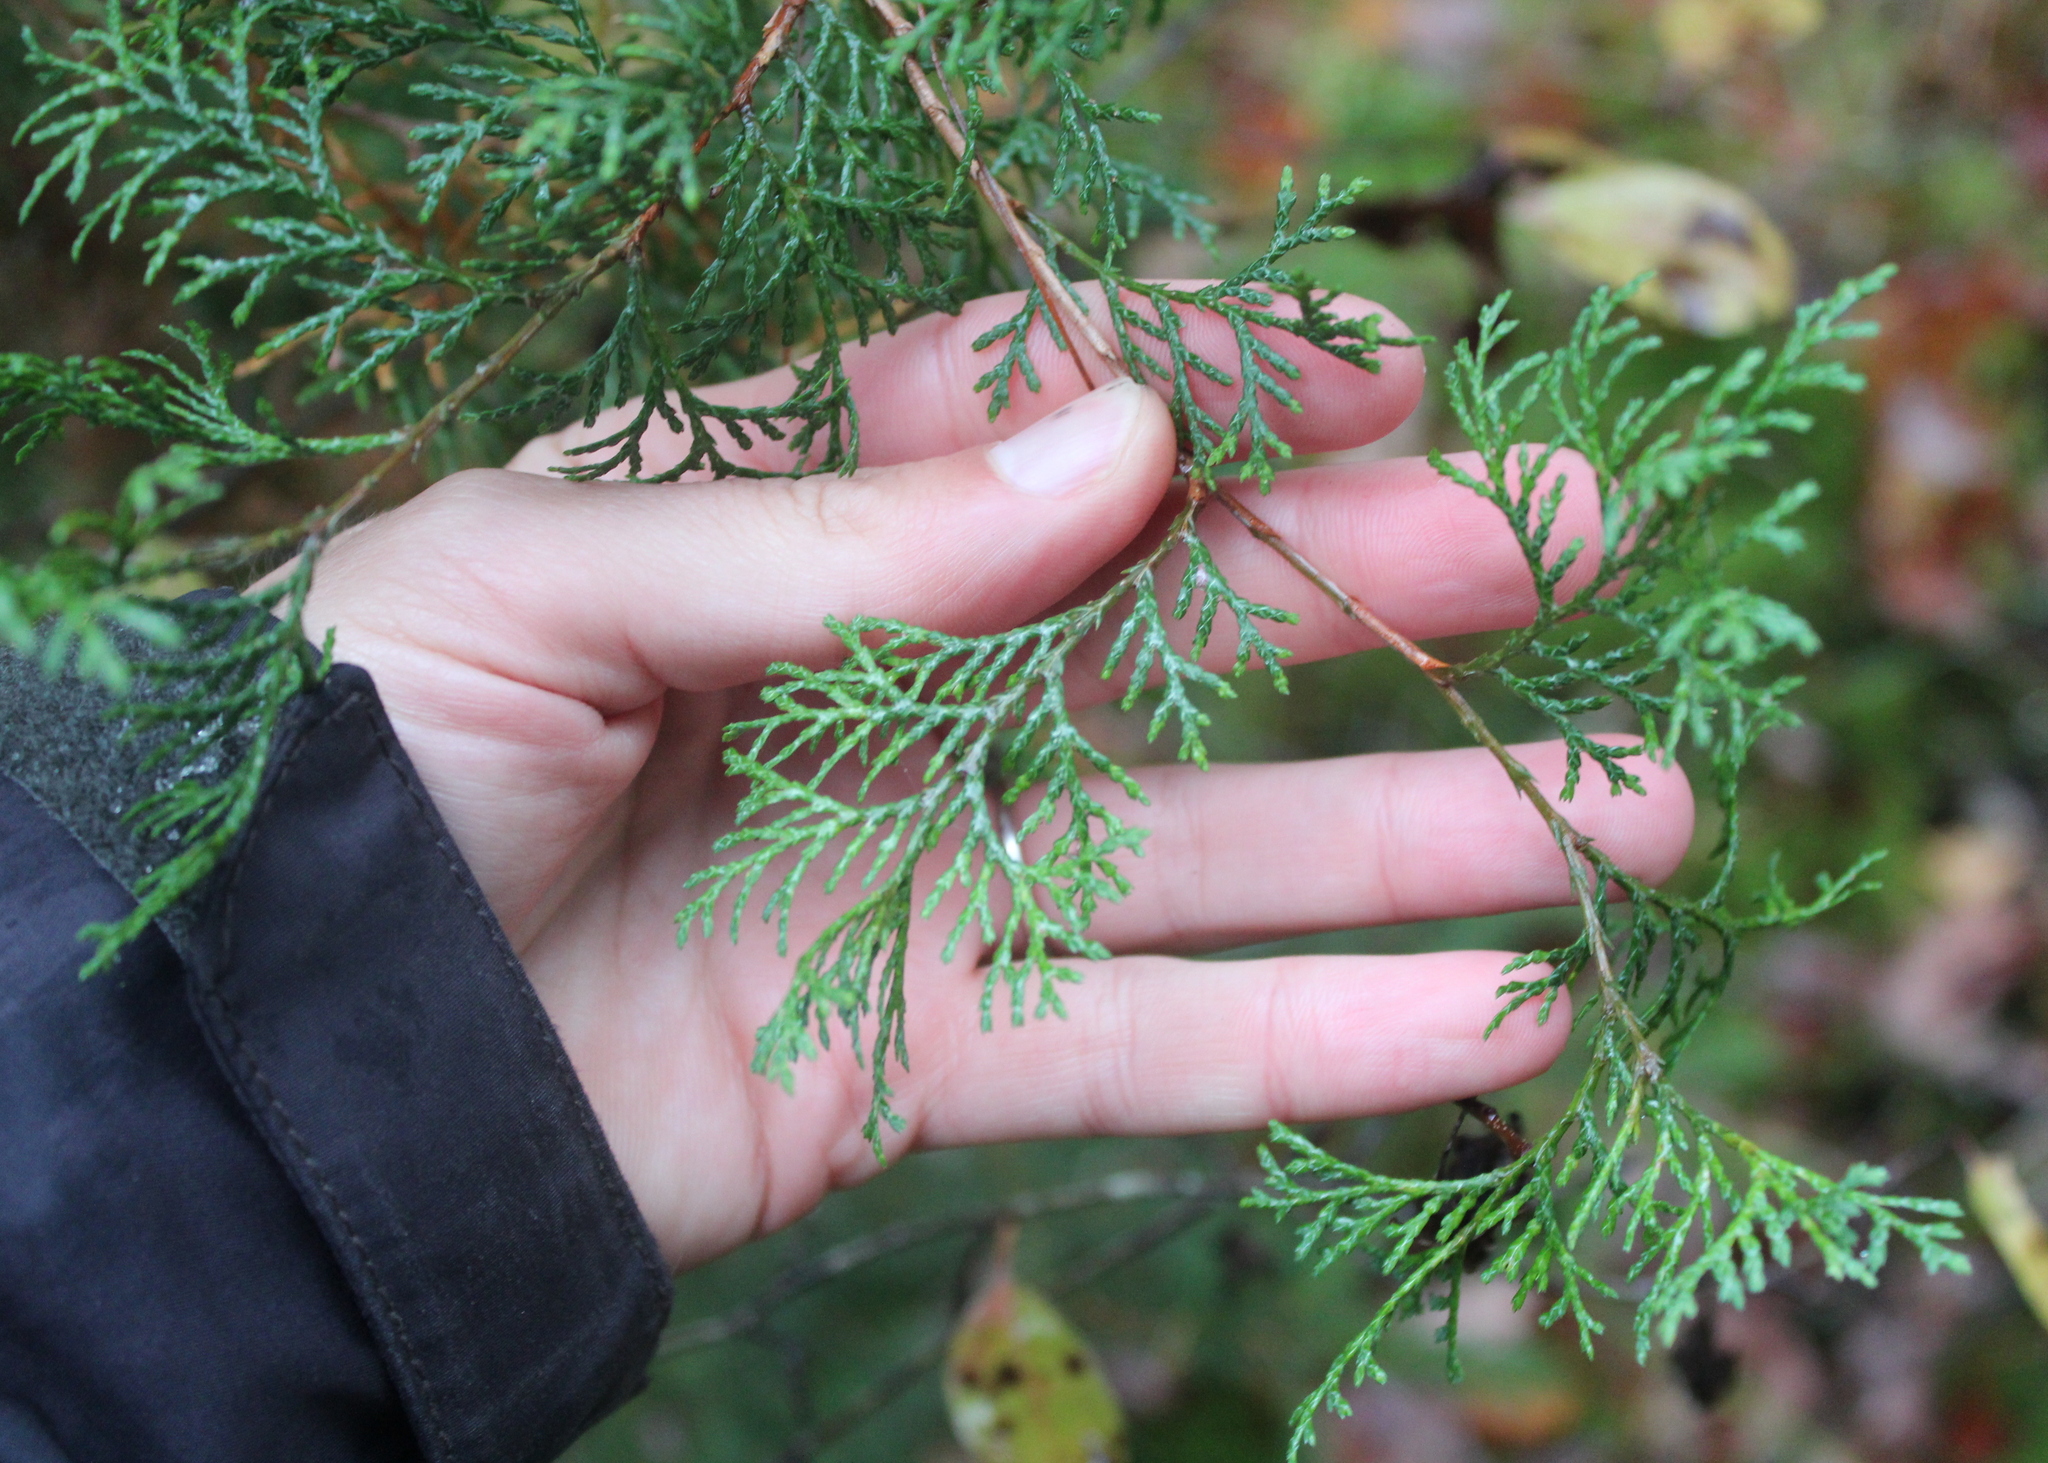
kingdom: Plantae
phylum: Tracheophyta
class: Pinopsida
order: Pinales
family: Cupressaceae
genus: Chamaecyparis
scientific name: Chamaecyparis thyoides
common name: Atlantic white cedar
